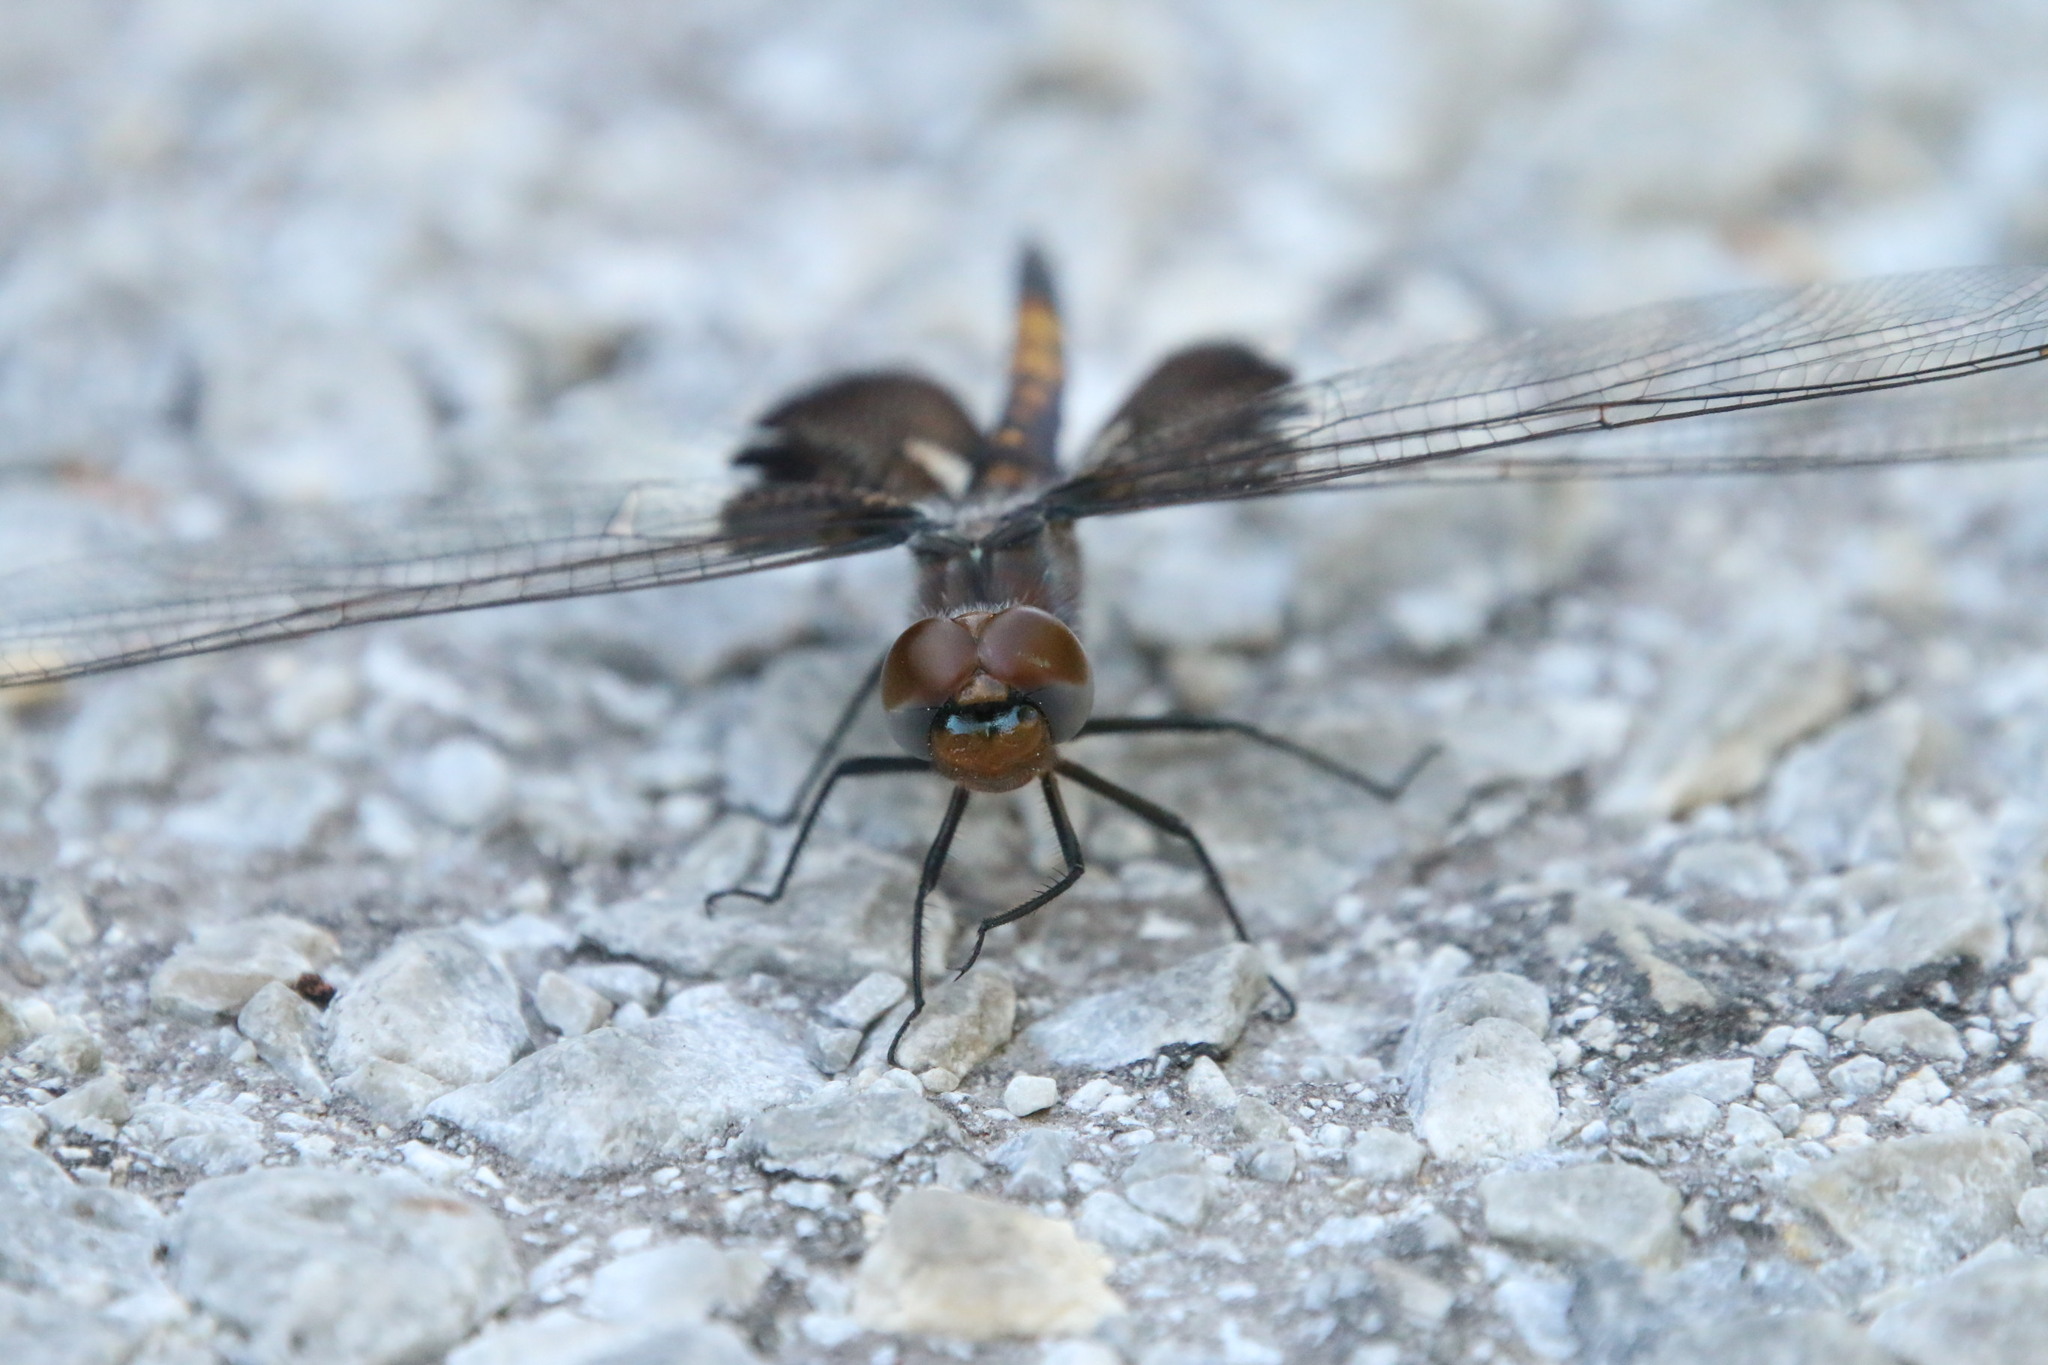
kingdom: Animalia
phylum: Arthropoda
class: Insecta
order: Odonata
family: Libellulidae
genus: Tramea
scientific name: Tramea lacerata
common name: Black saddlebags
